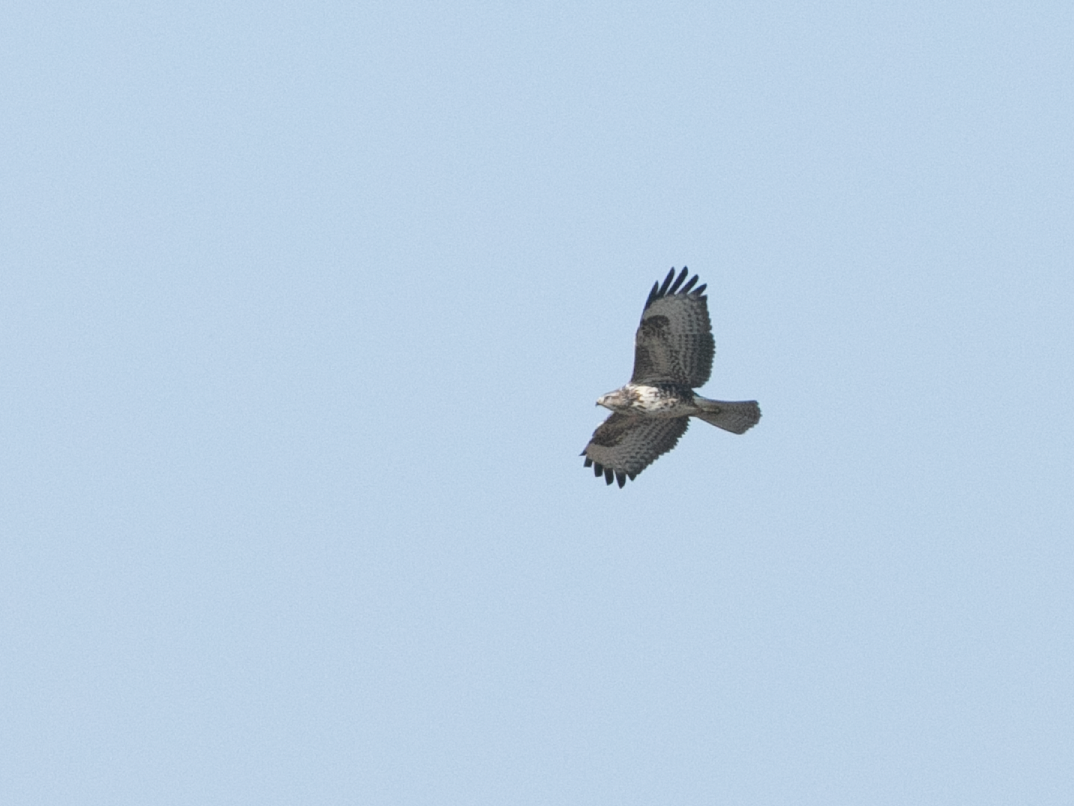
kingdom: Animalia
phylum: Chordata
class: Aves
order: Accipitriformes
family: Accipitridae
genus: Buteo
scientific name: Buteo buteo
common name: Common buzzard
